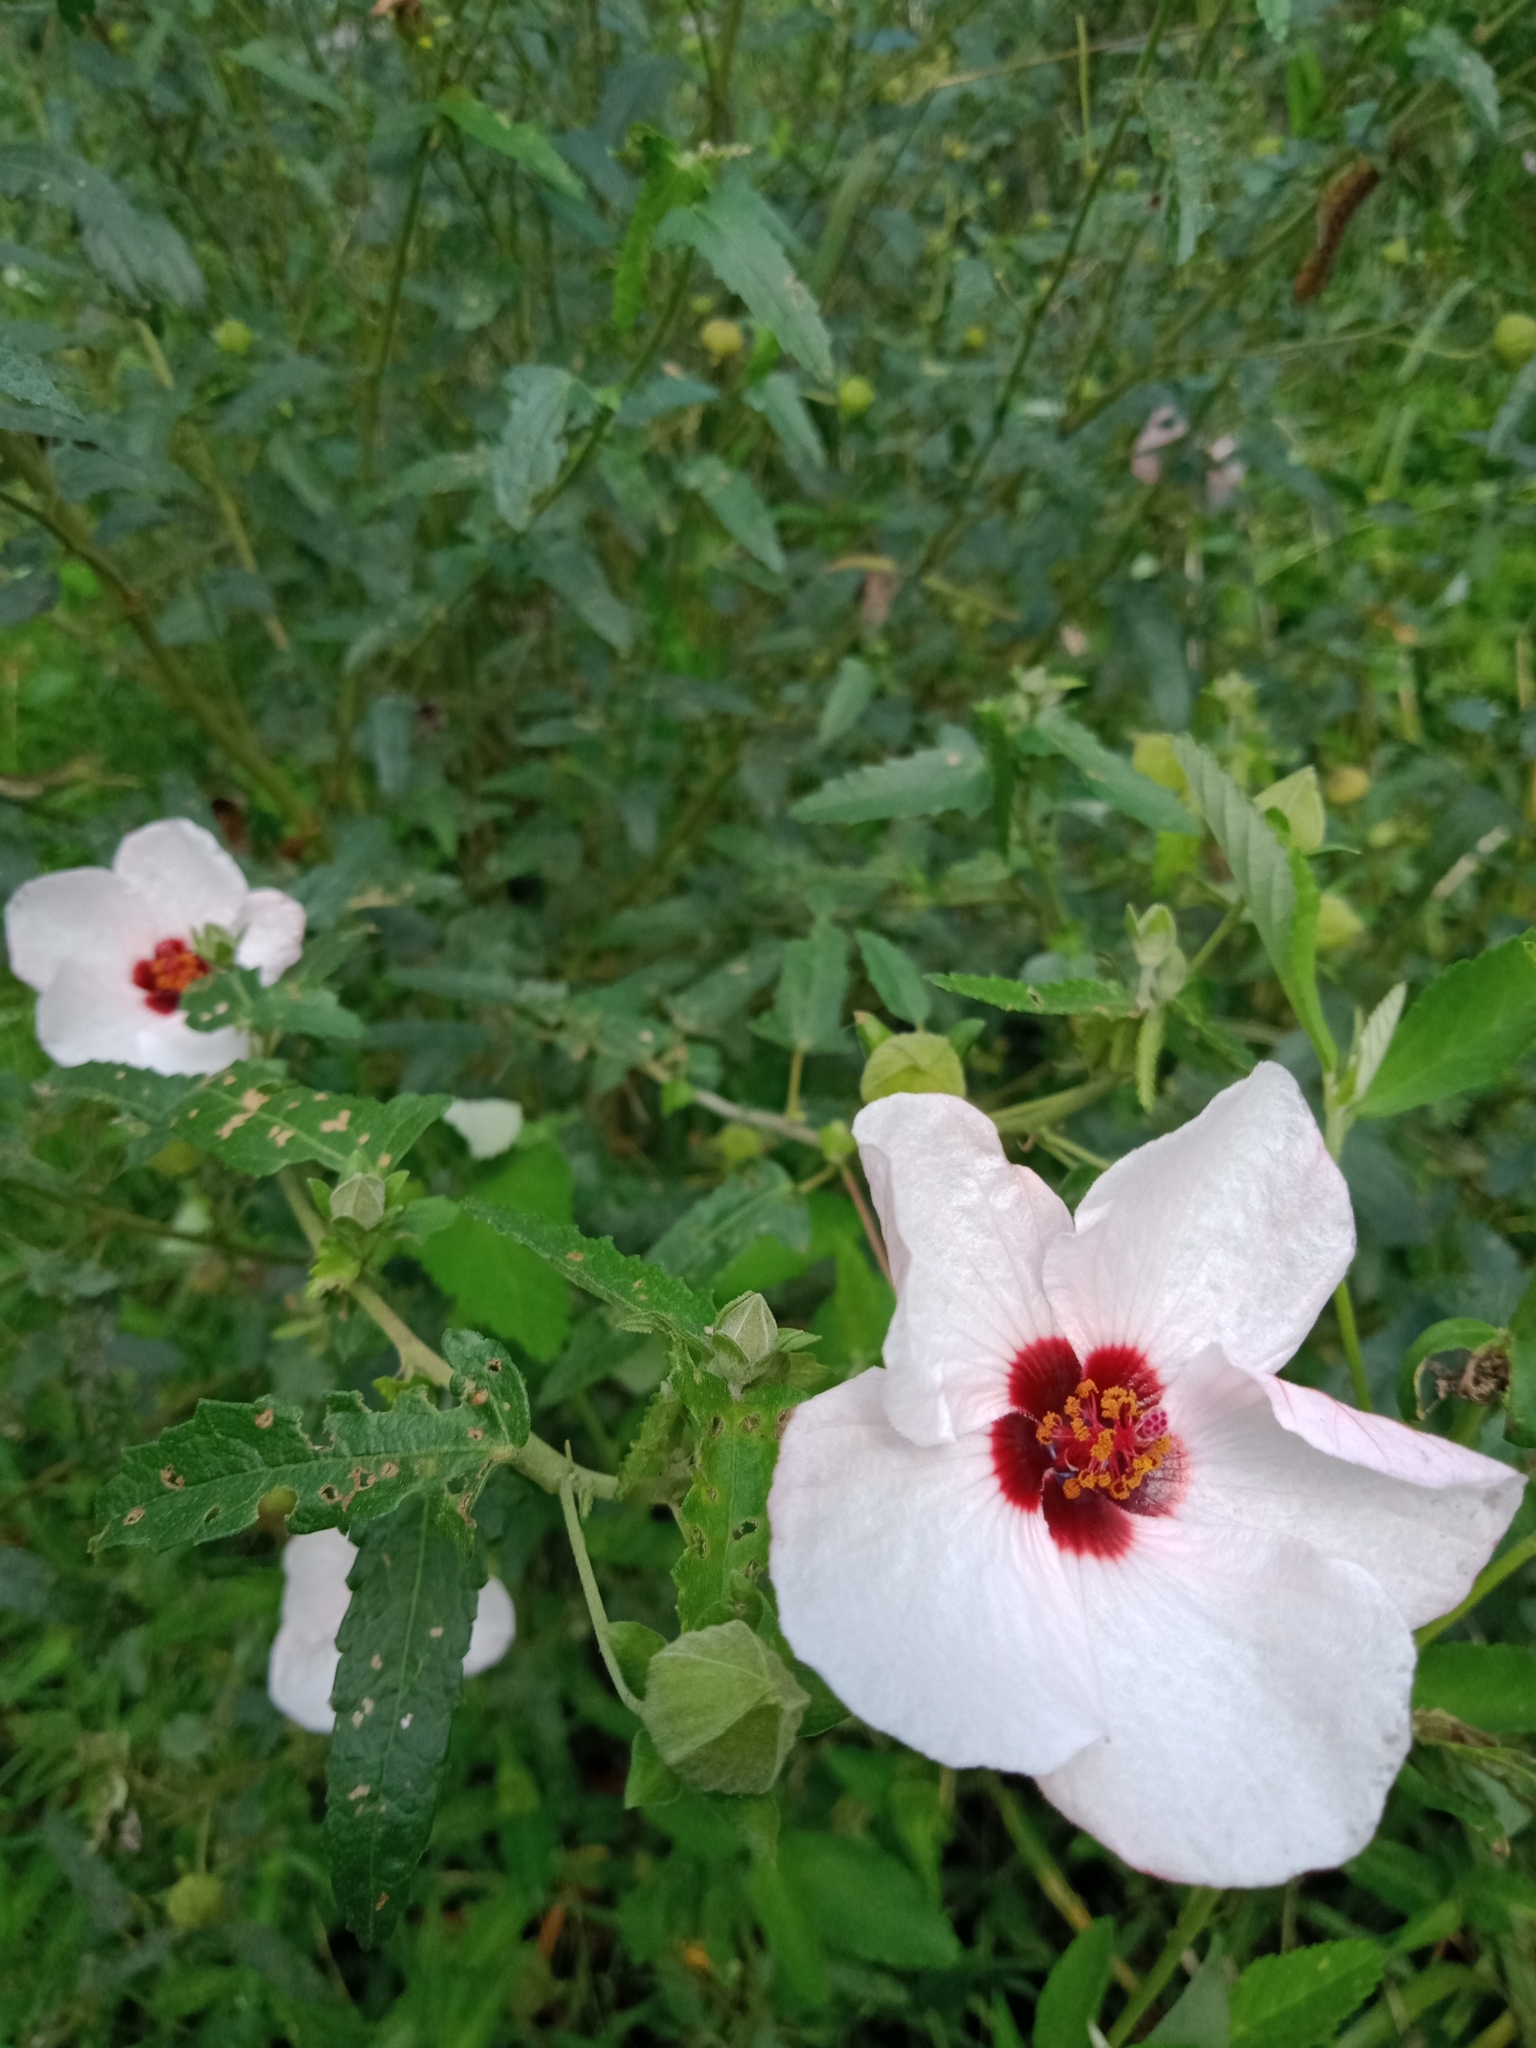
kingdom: Plantae
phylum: Tracheophyta
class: Magnoliopsida
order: Malvales
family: Malvaceae
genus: Pavonia
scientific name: Pavonia hastata
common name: Spearleaf swampmallow
